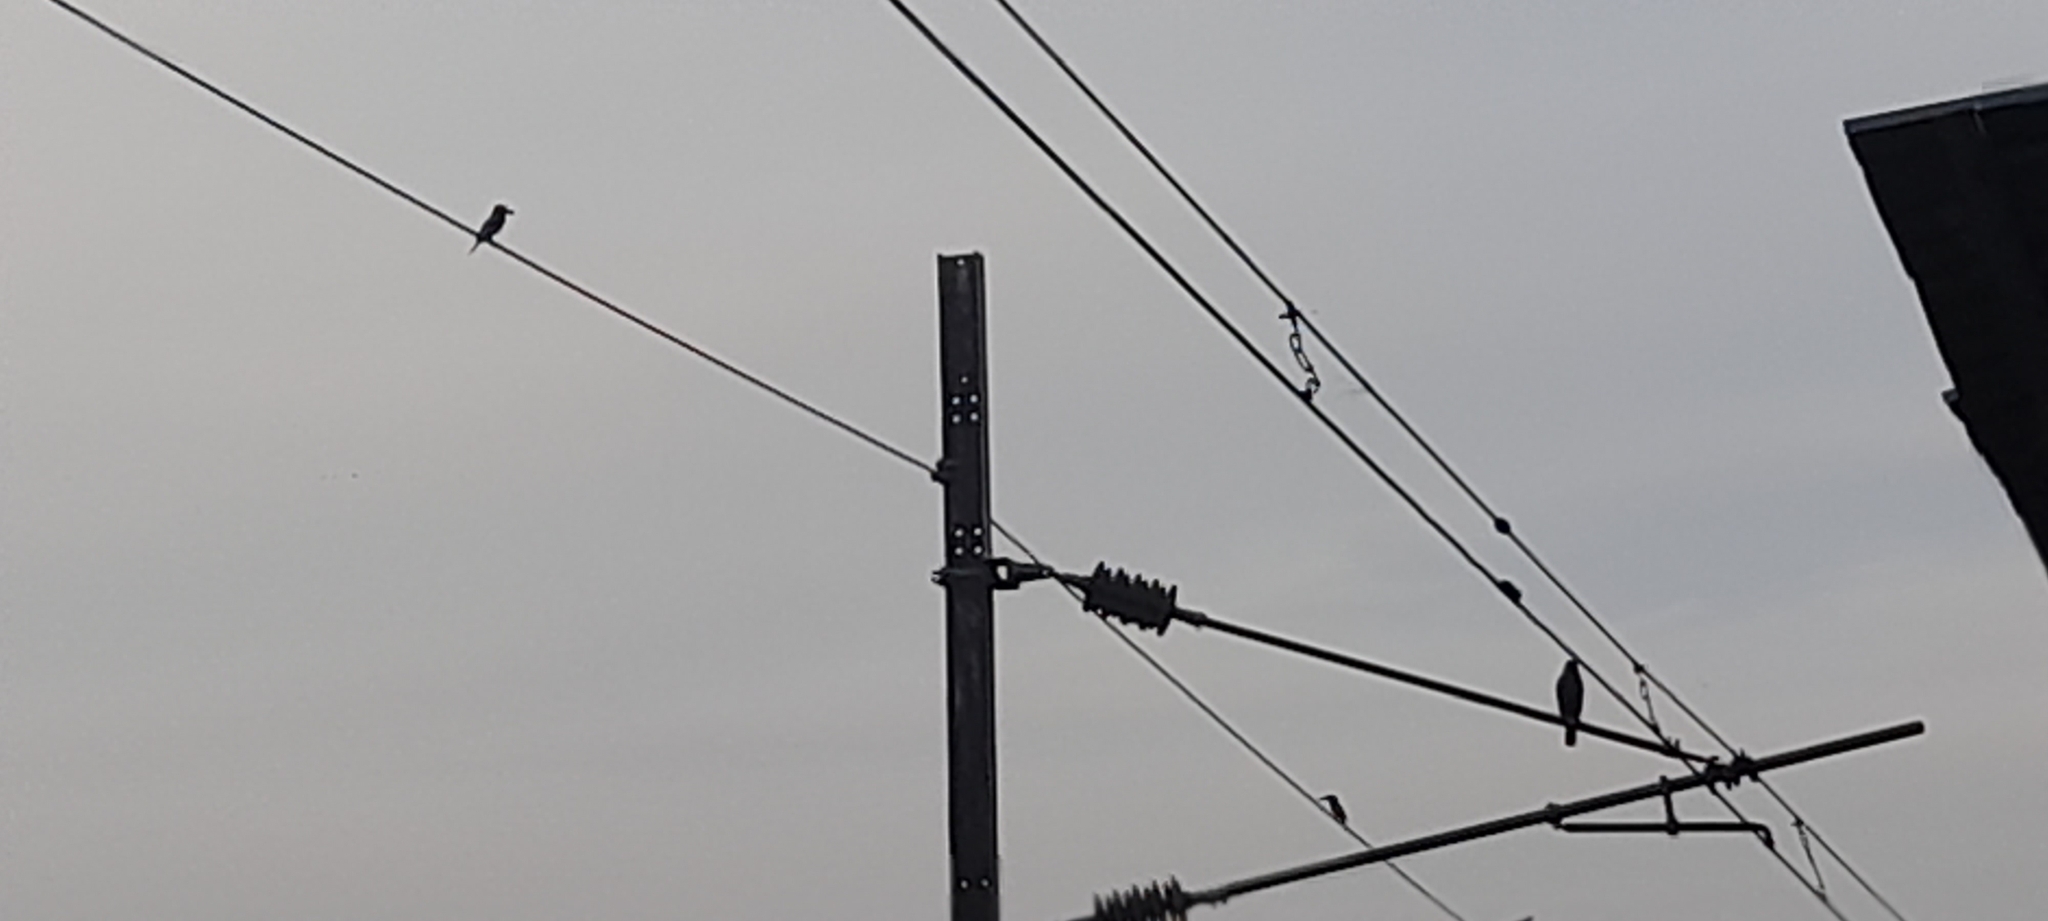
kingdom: Animalia
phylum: Chordata
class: Aves
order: Coraciiformes
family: Alcedinidae
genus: Halcyon
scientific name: Halcyon smyrnensis
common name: White-throated kingfisher
